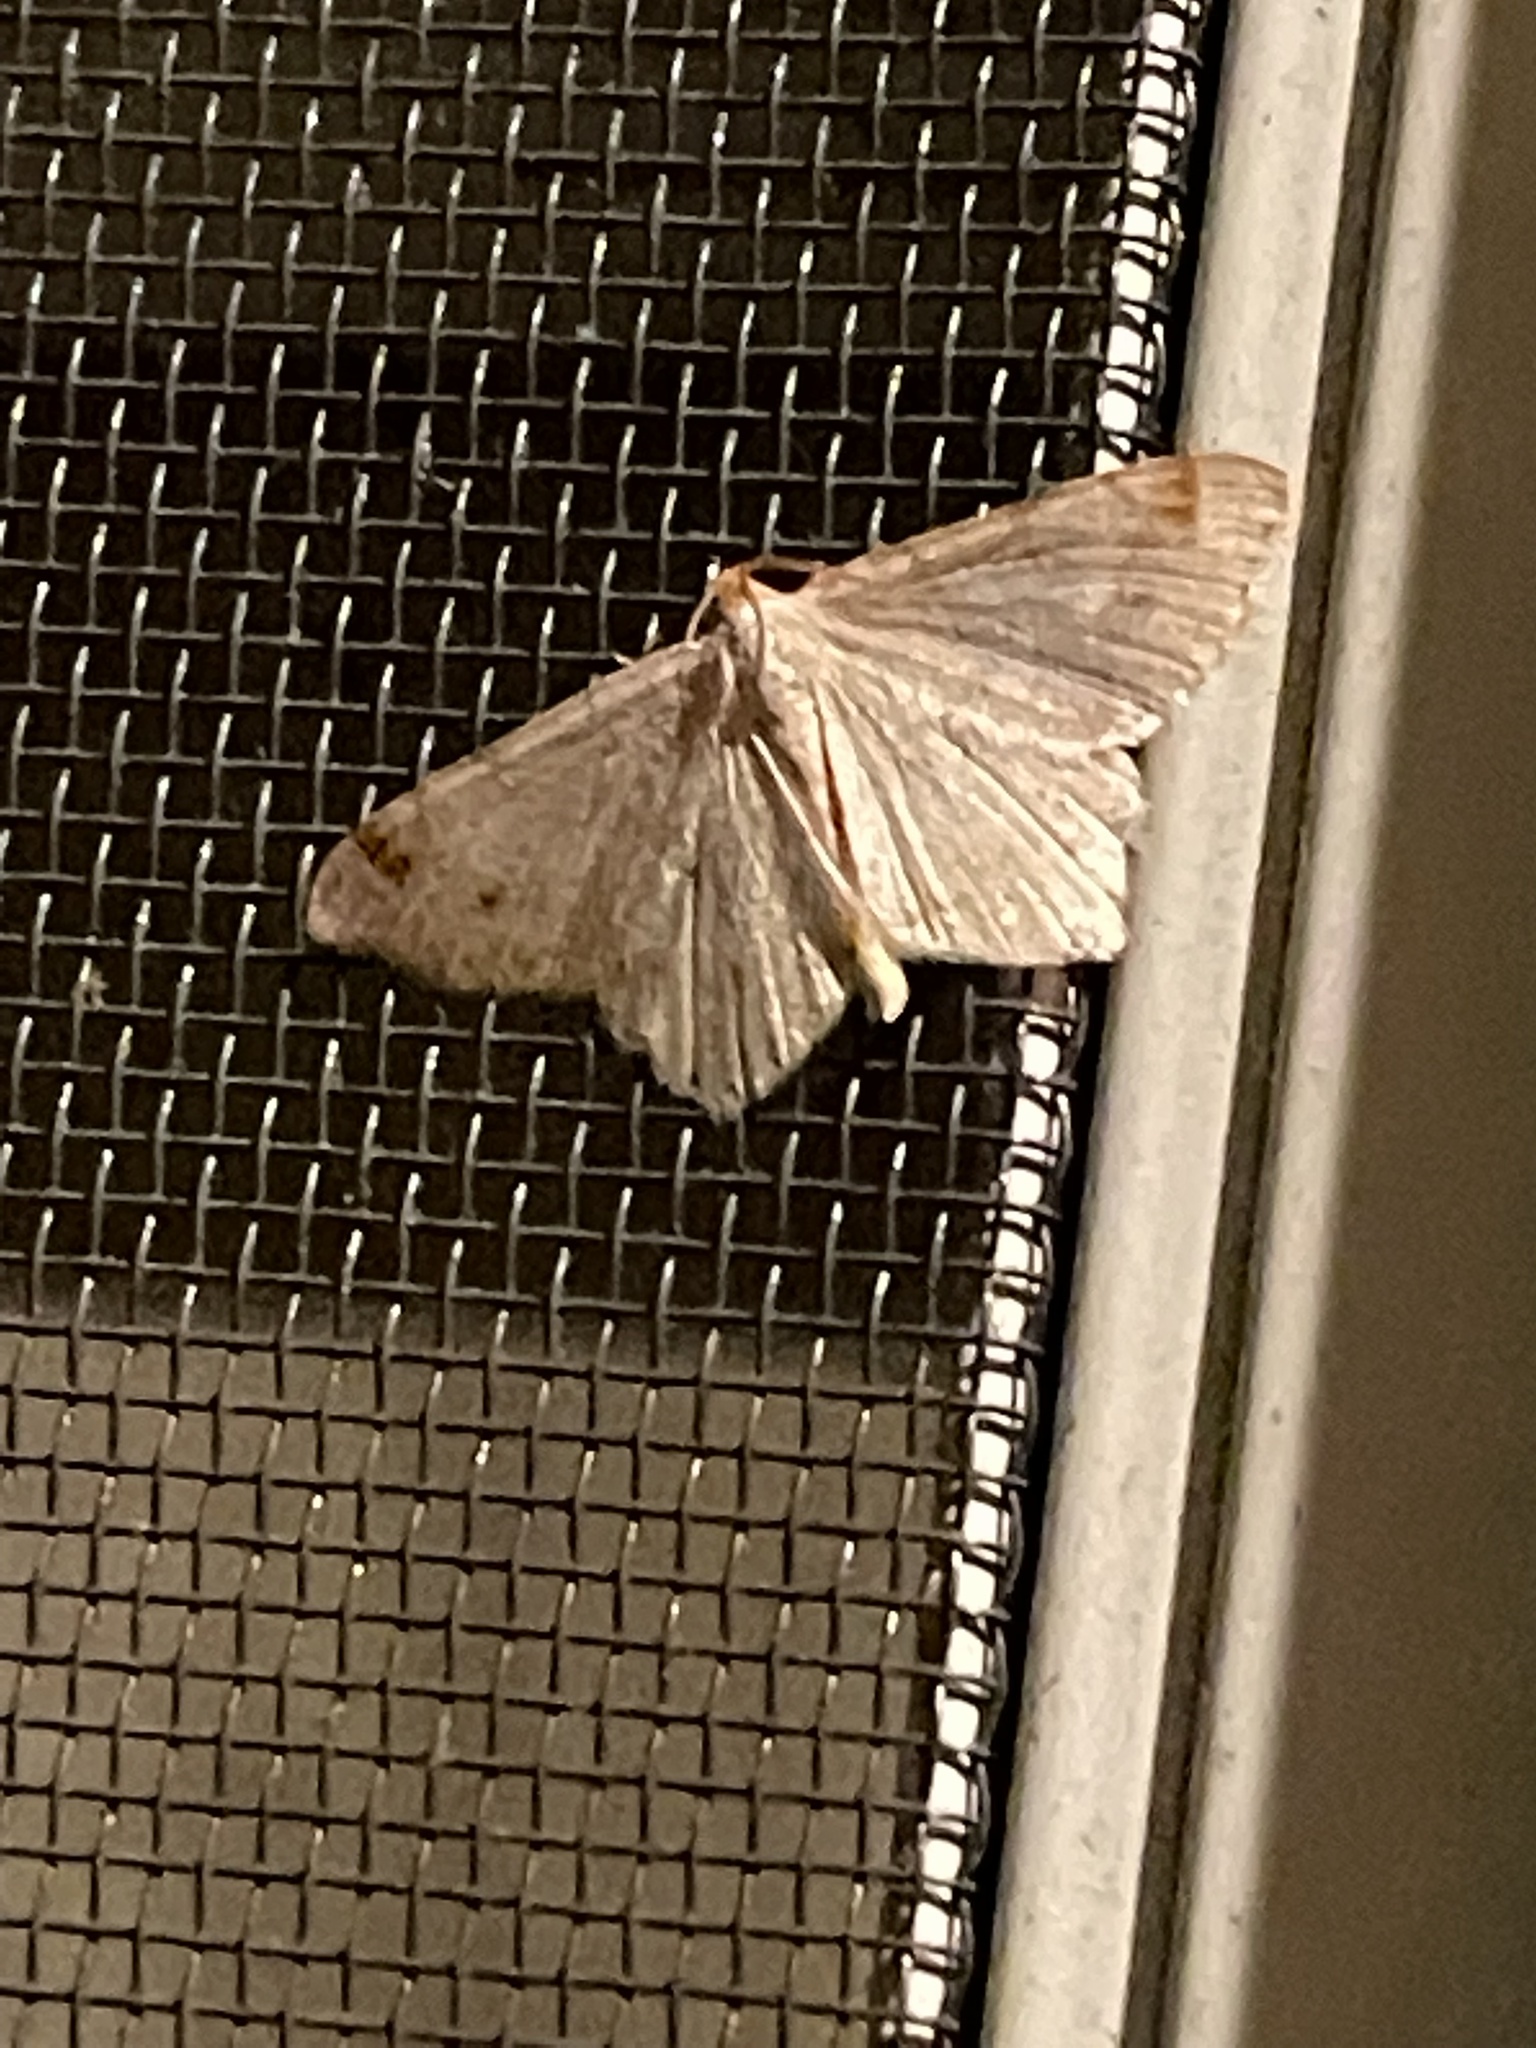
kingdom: Animalia
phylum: Arthropoda
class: Insecta
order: Lepidoptera
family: Geometridae
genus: Macaria
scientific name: Macaria bisignata
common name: Red-headed inchworm
